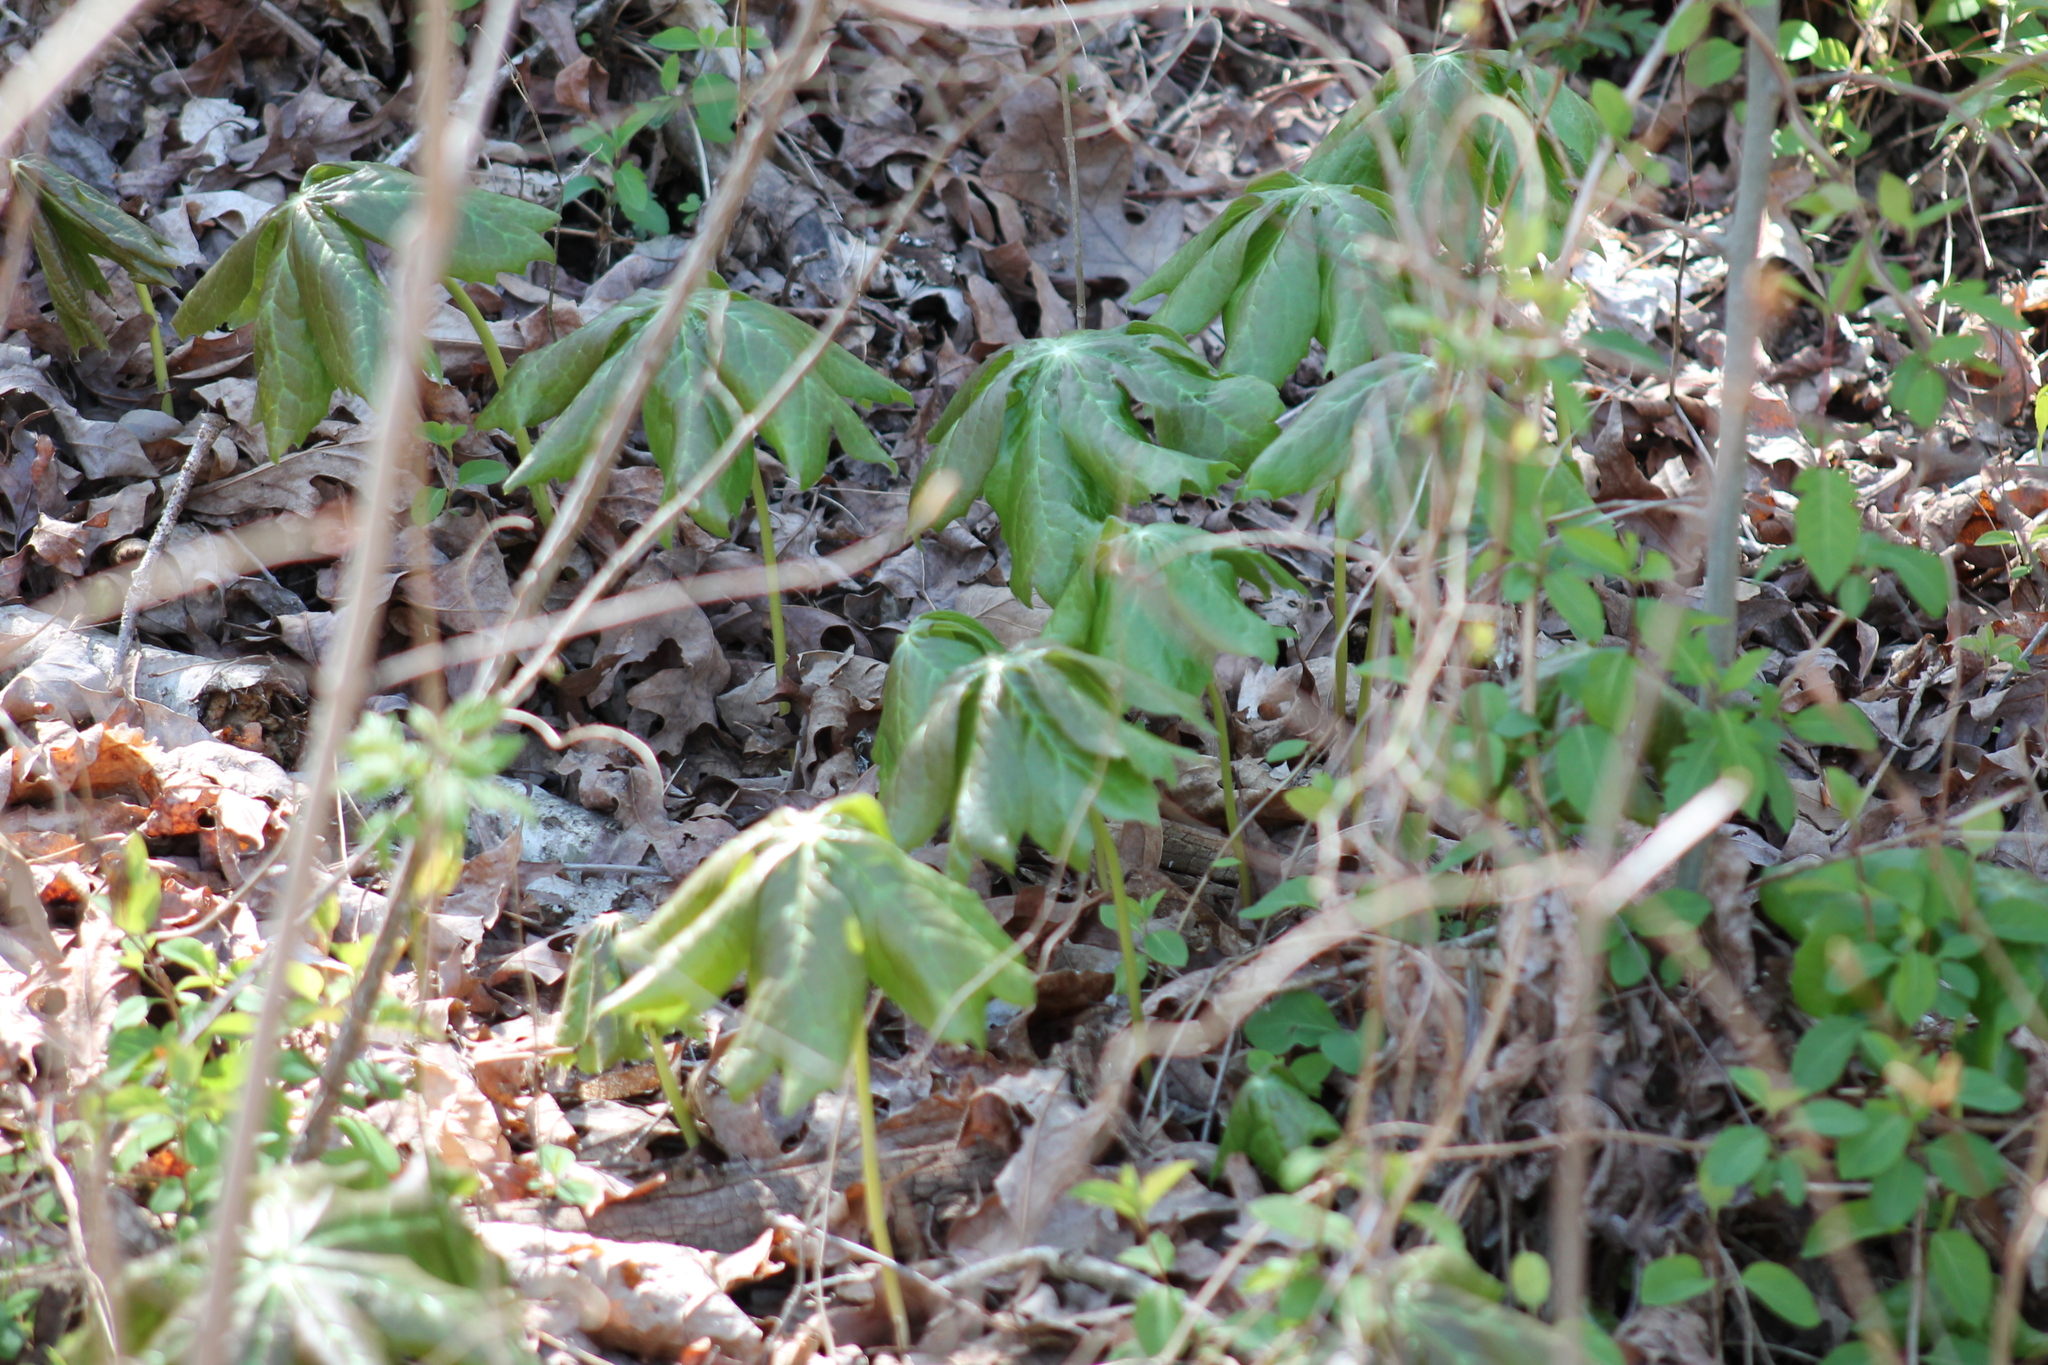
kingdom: Plantae
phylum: Tracheophyta
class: Magnoliopsida
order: Ranunculales
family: Berberidaceae
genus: Podophyllum
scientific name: Podophyllum peltatum
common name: Wild mandrake
